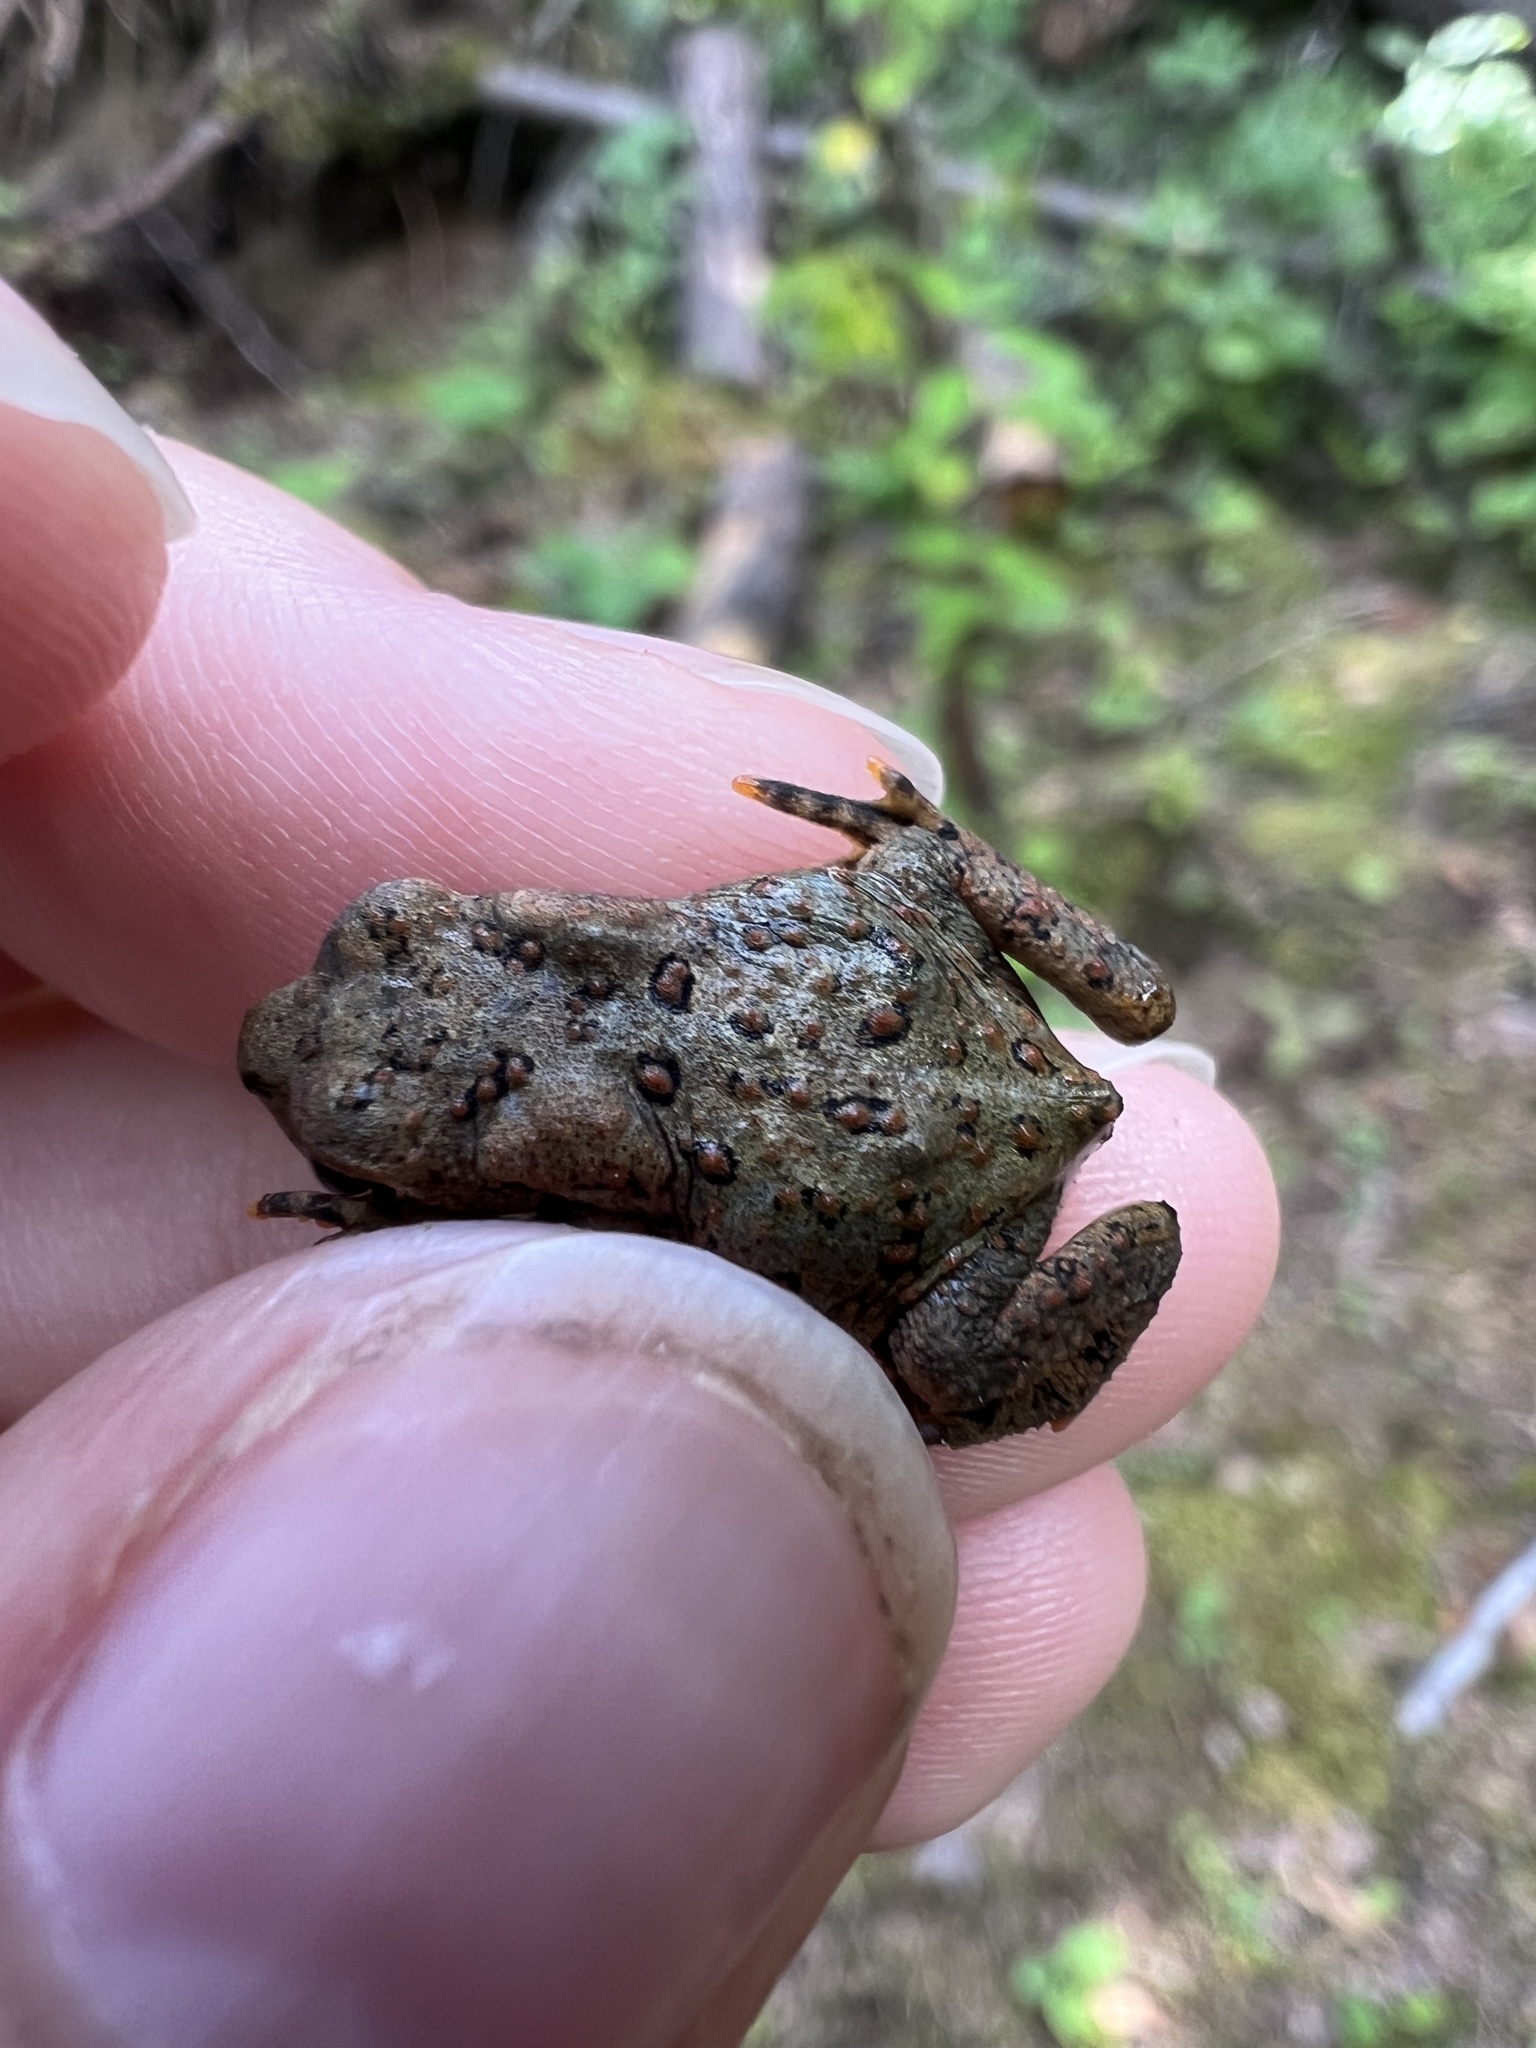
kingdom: Animalia
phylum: Chordata
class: Amphibia
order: Anura
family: Bufonidae
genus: Anaxyrus
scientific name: Anaxyrus americanus
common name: American toad
